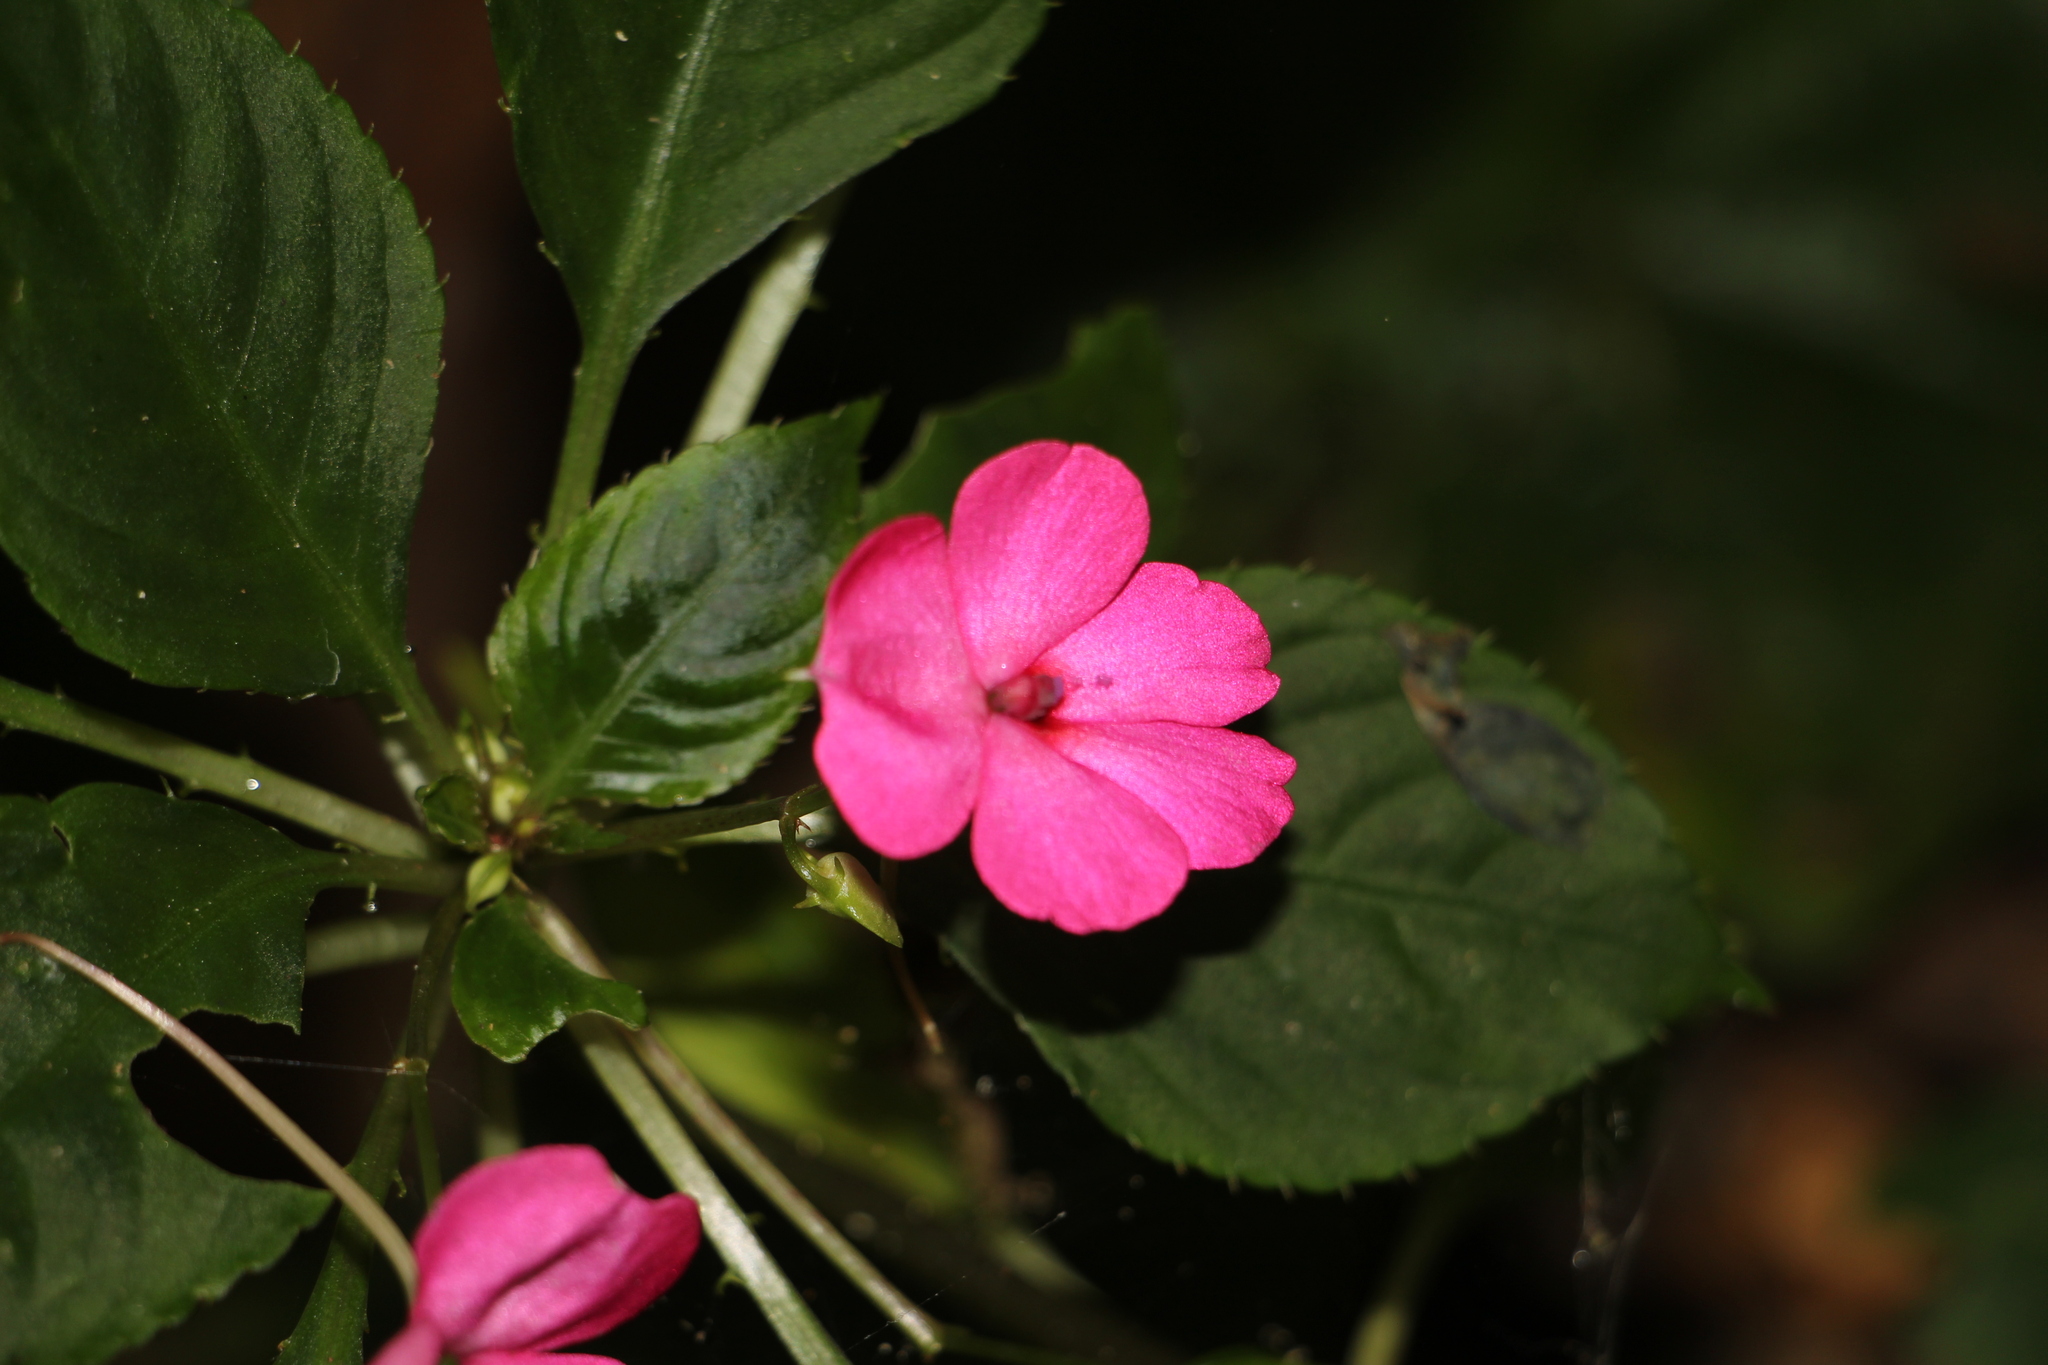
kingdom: Plantae
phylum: Tracheophyta
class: Magnoliopsida
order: Ericales
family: Balsaminaceae
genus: Impatiens
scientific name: Impatiens walleriana
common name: Buzzy lizzy
